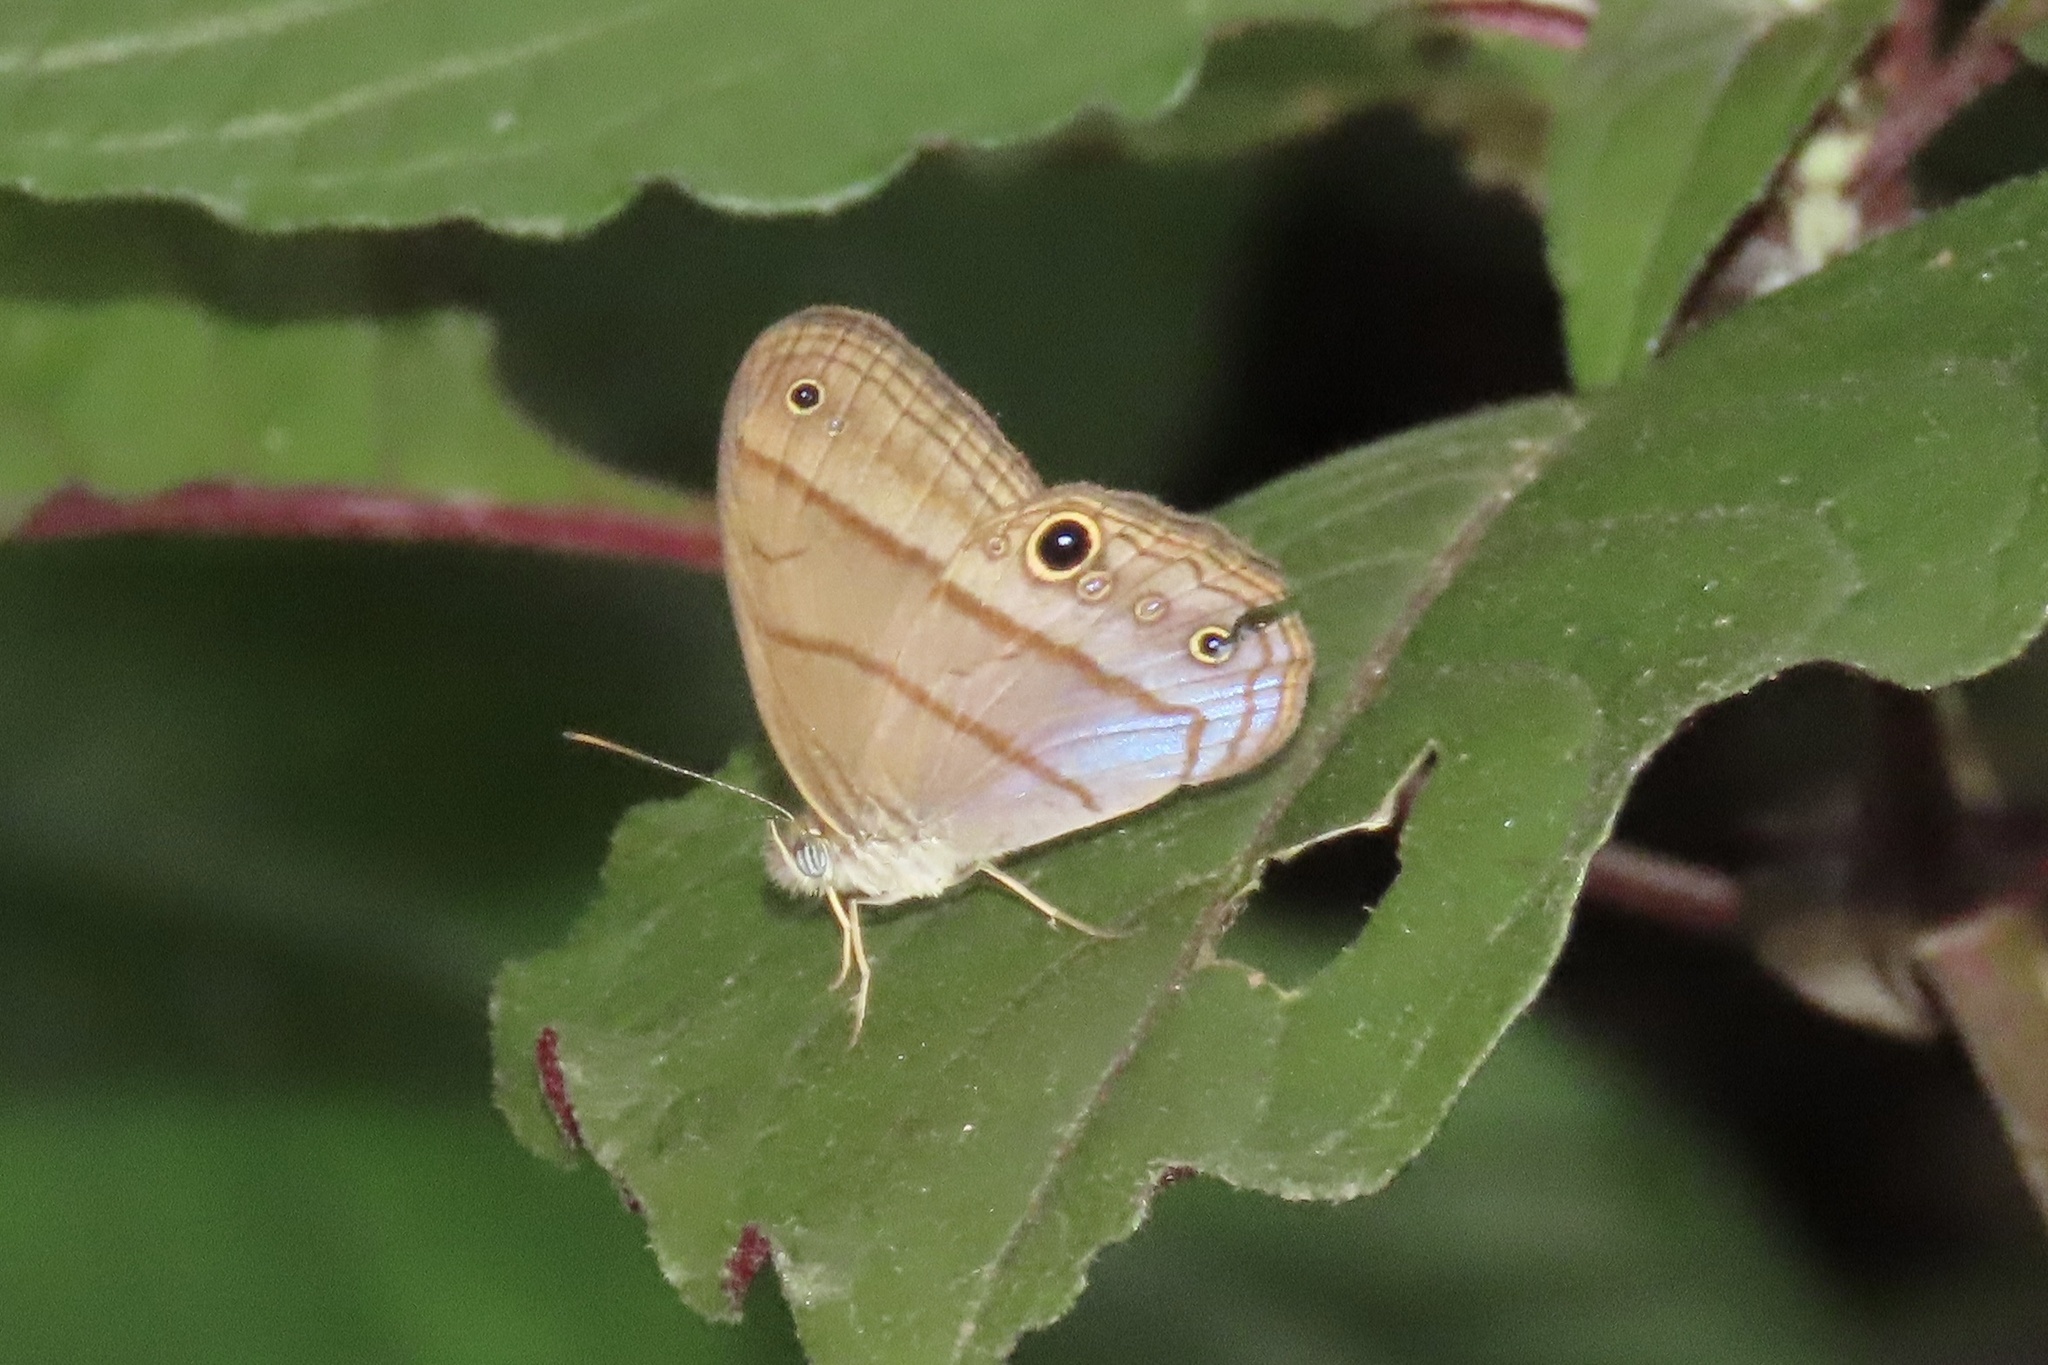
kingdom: Animalia
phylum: Arthropoda
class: Insecta
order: Lepidoptera
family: Nymphalidae
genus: Amiga
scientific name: Amiga arnaca
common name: Blue-topped satyr
